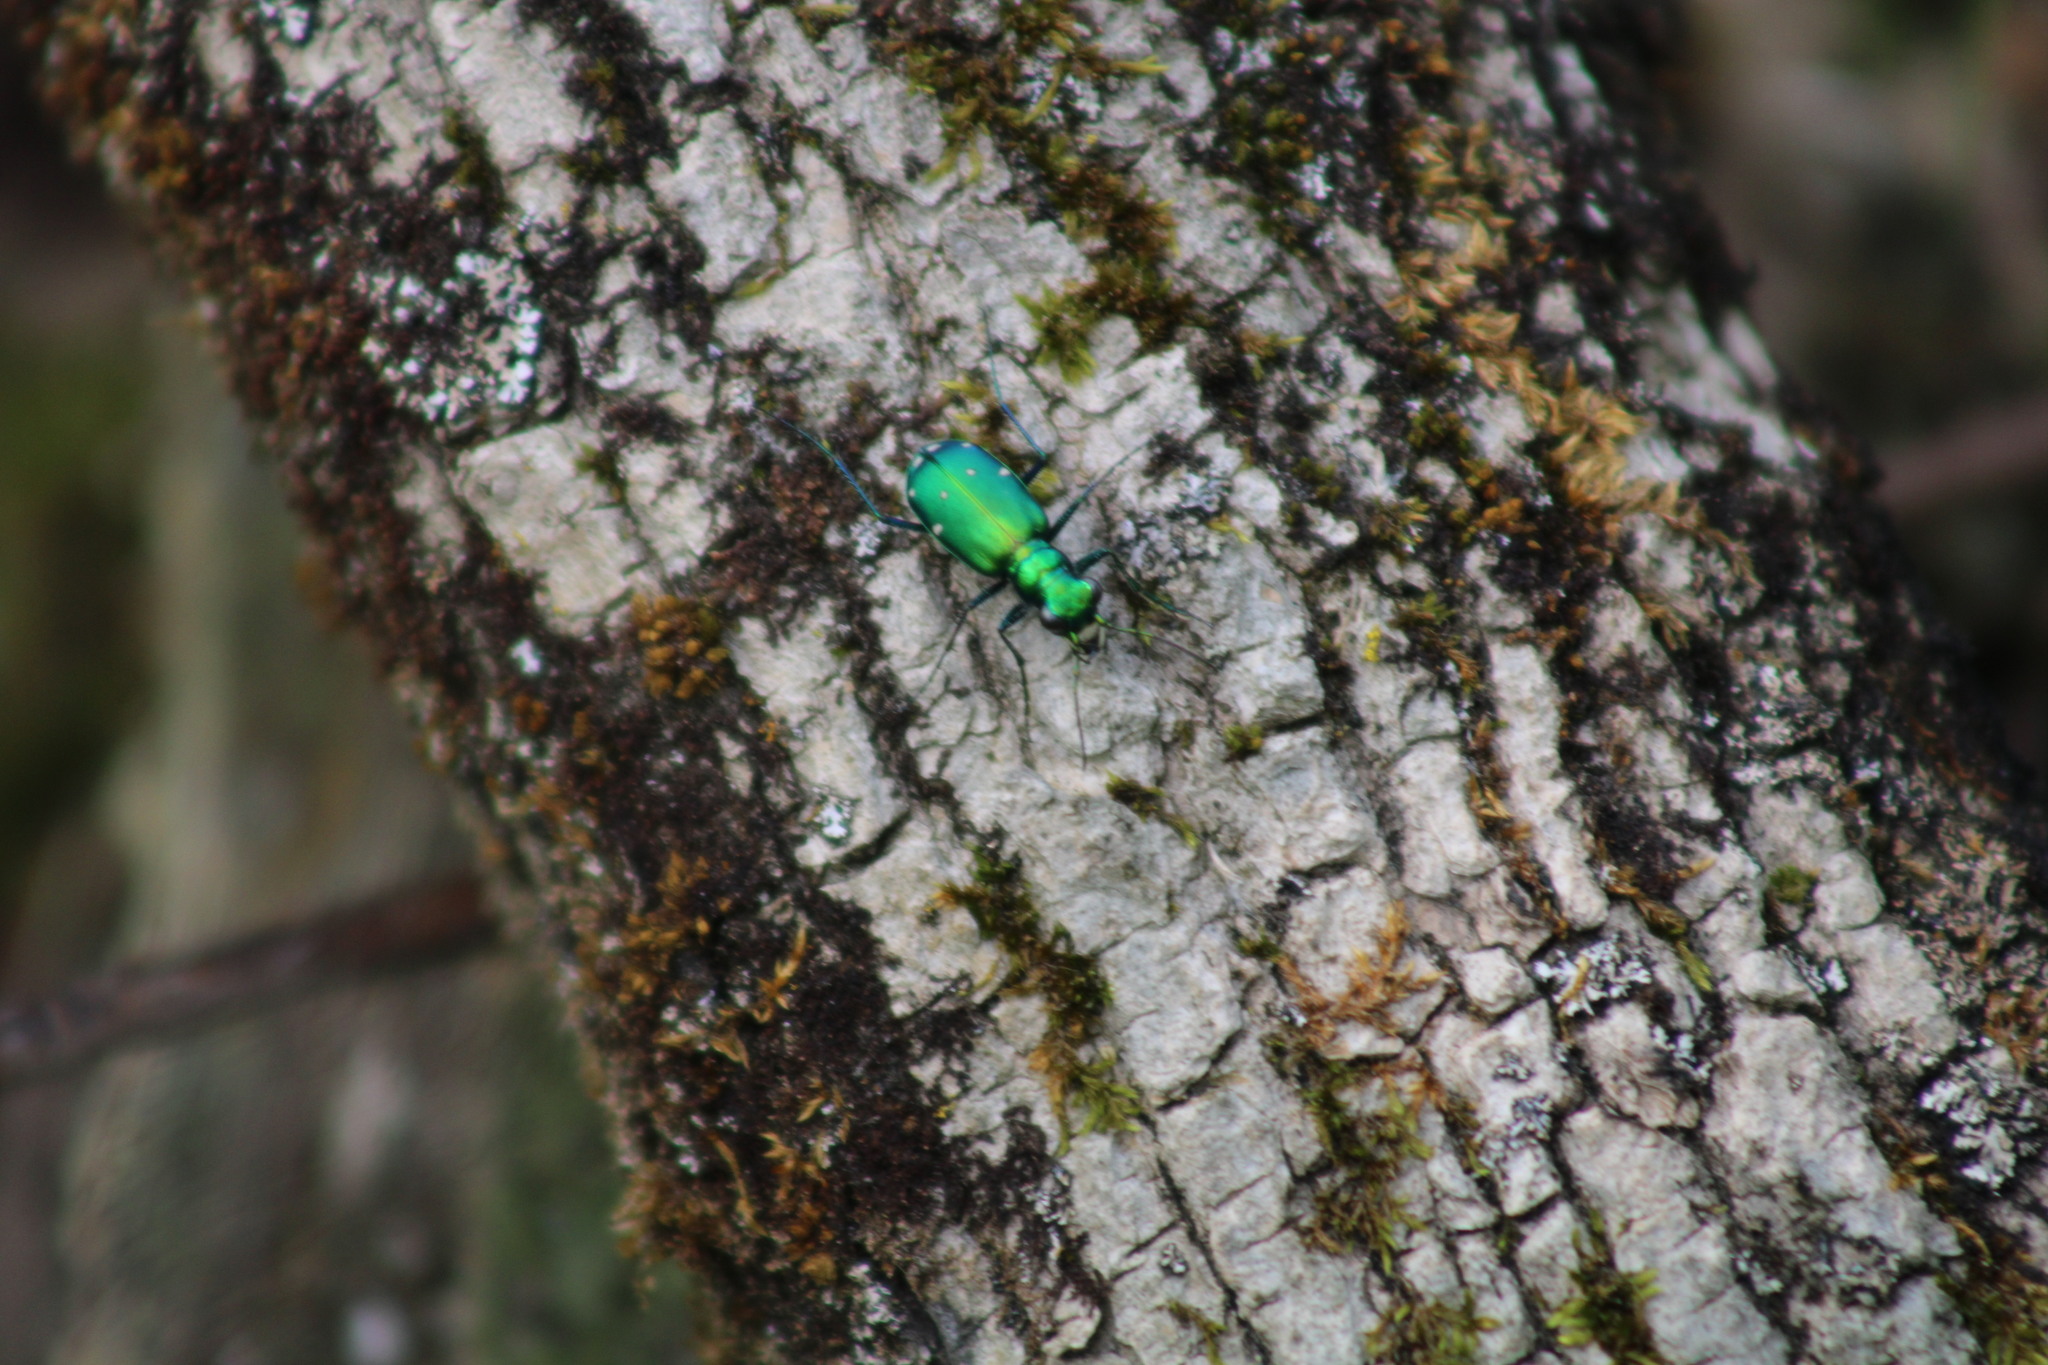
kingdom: Animalia
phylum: Arthropoda
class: Insecta
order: Coleoptera
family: Carabidae
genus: Cicindela
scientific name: Cicindela sexguttata
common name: Six-spotted tiger beetle
